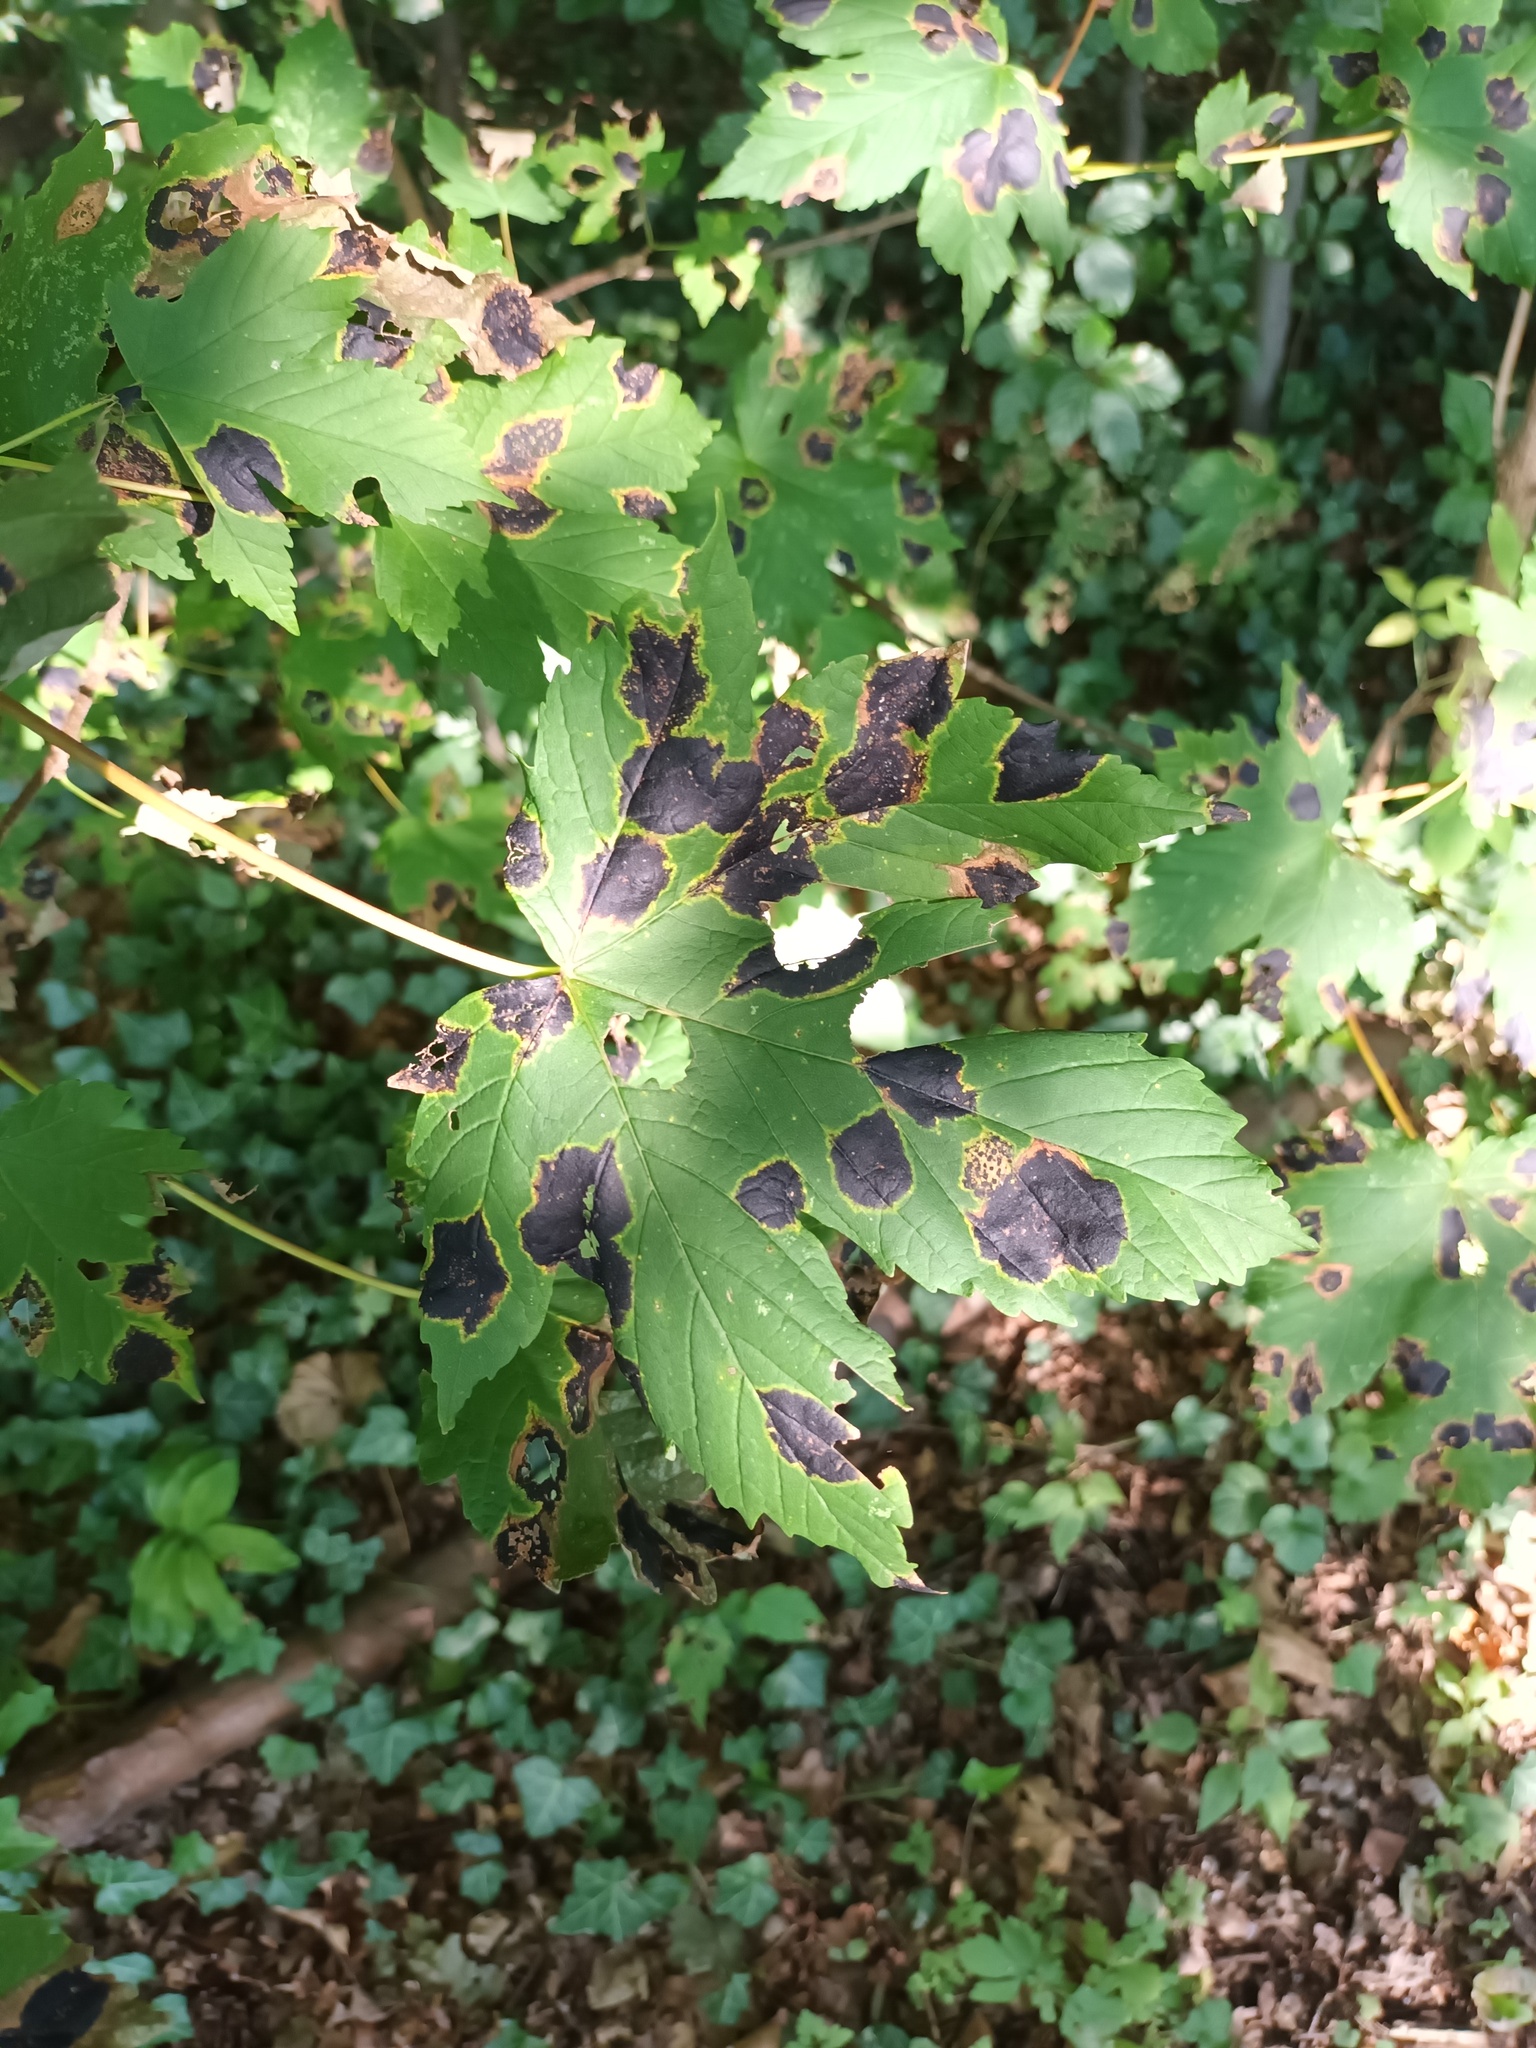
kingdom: Fungi
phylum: Ascomycota
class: Leotiomycetes
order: Rhytismatales
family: Rhytismataceae
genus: Rhytisma
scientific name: Rhytisma acerinum
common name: European tar spot
